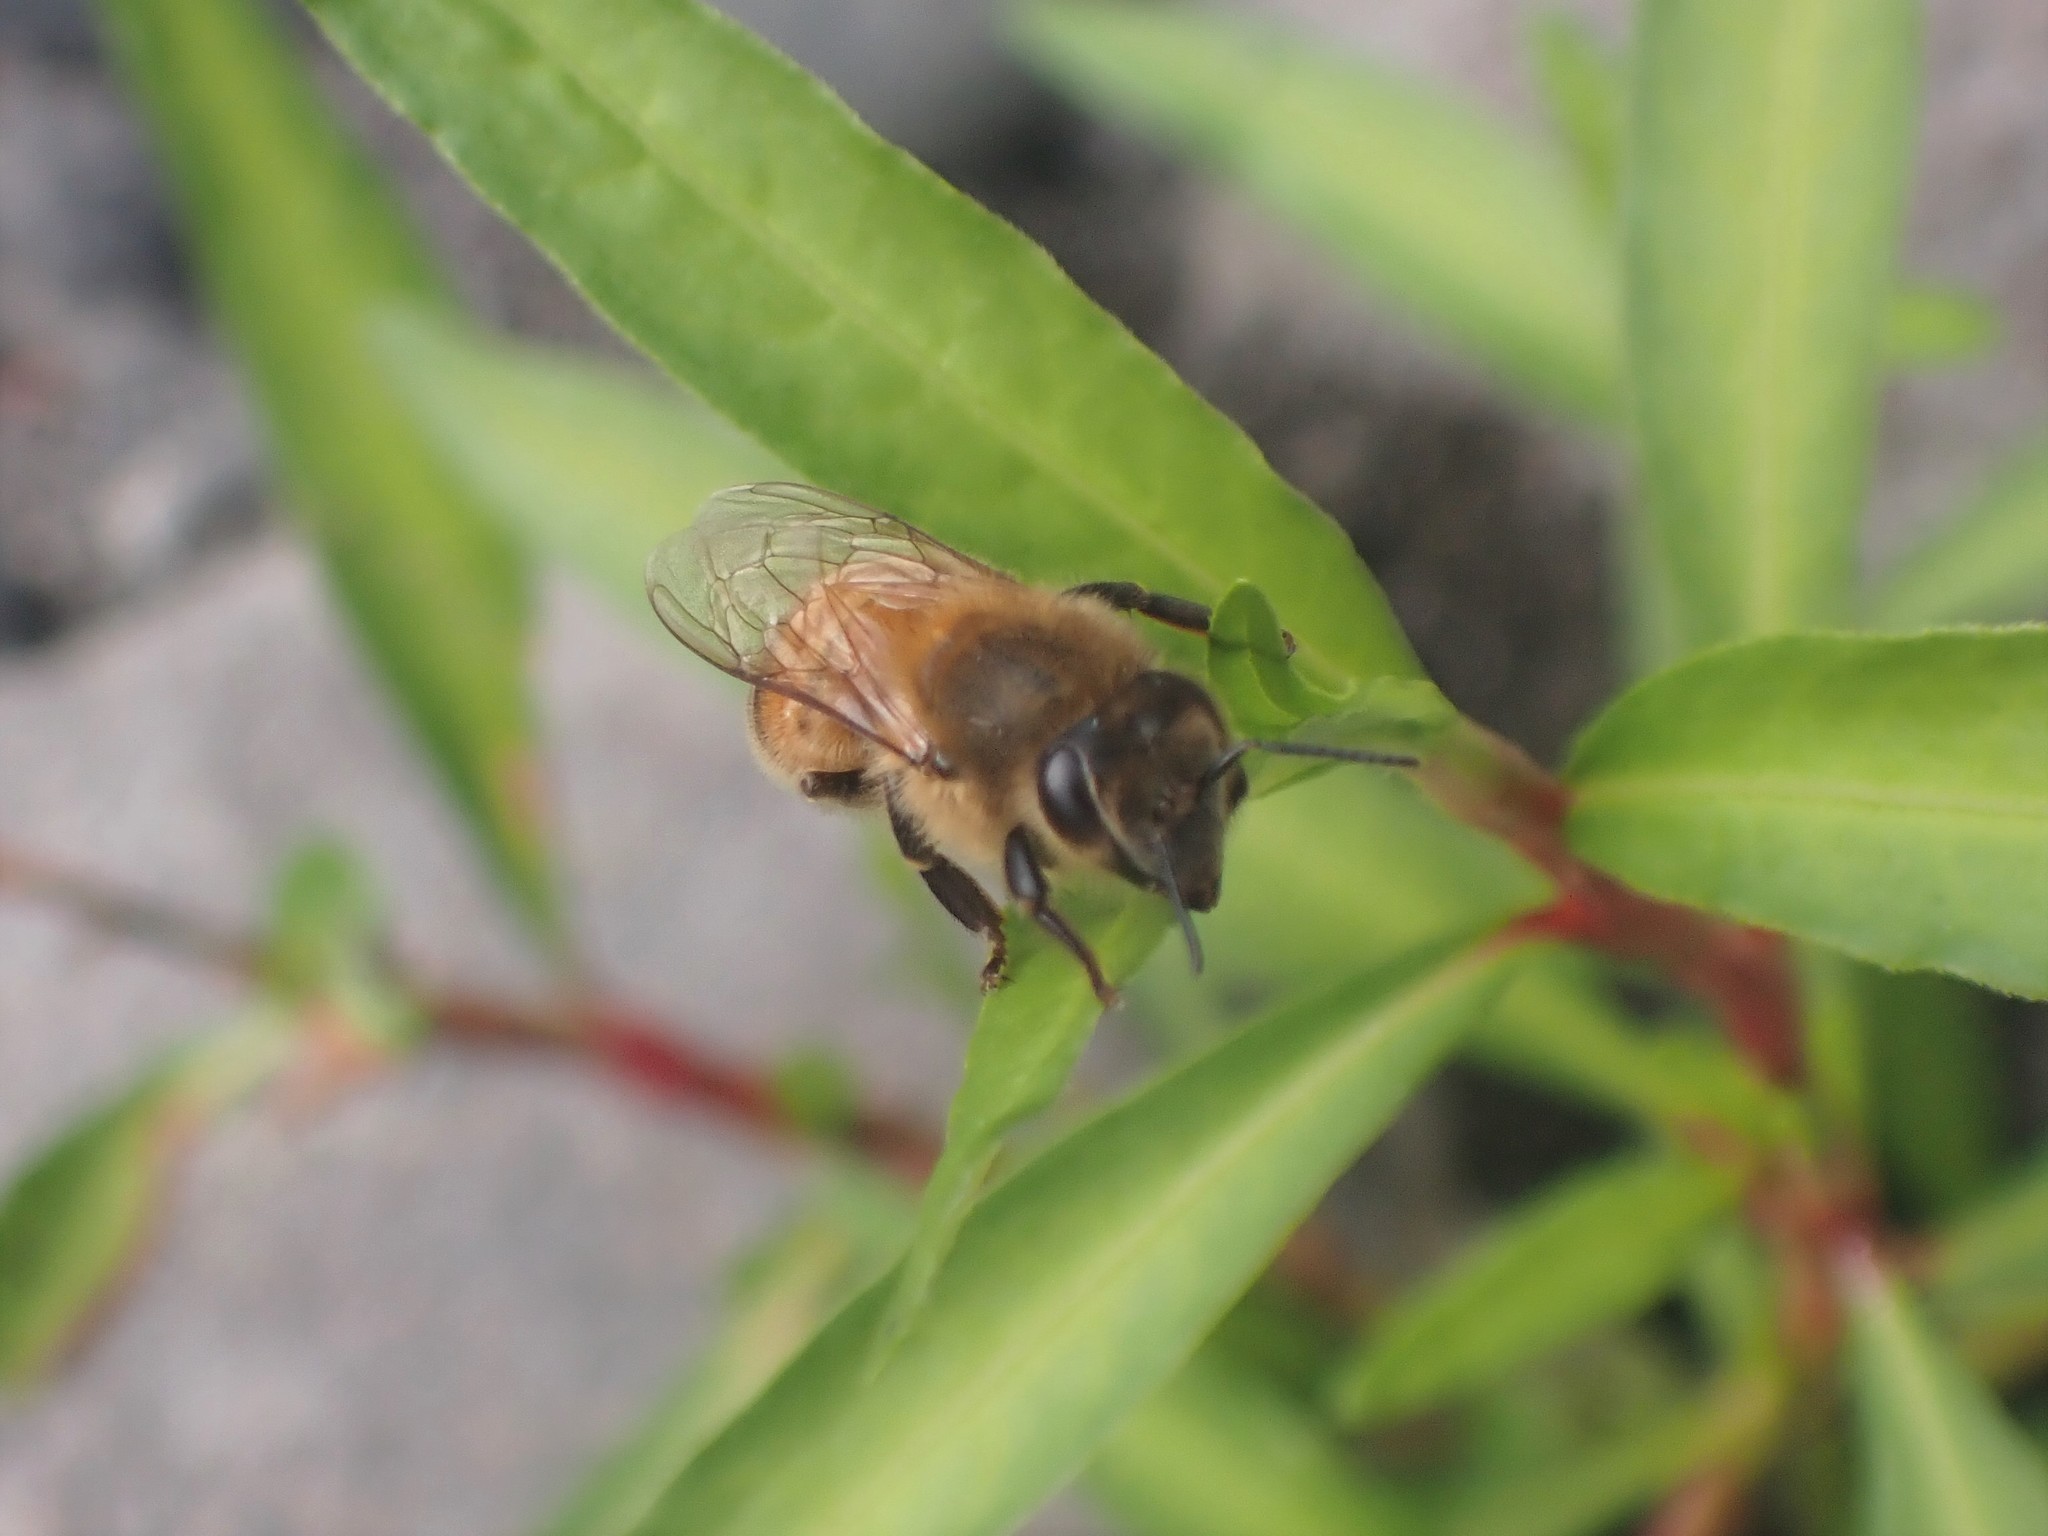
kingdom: Animalia
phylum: Arthropoda
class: Insecta
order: Hymenoptera
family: Apidae
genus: Apis
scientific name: Apis mellifera
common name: Honey bee
